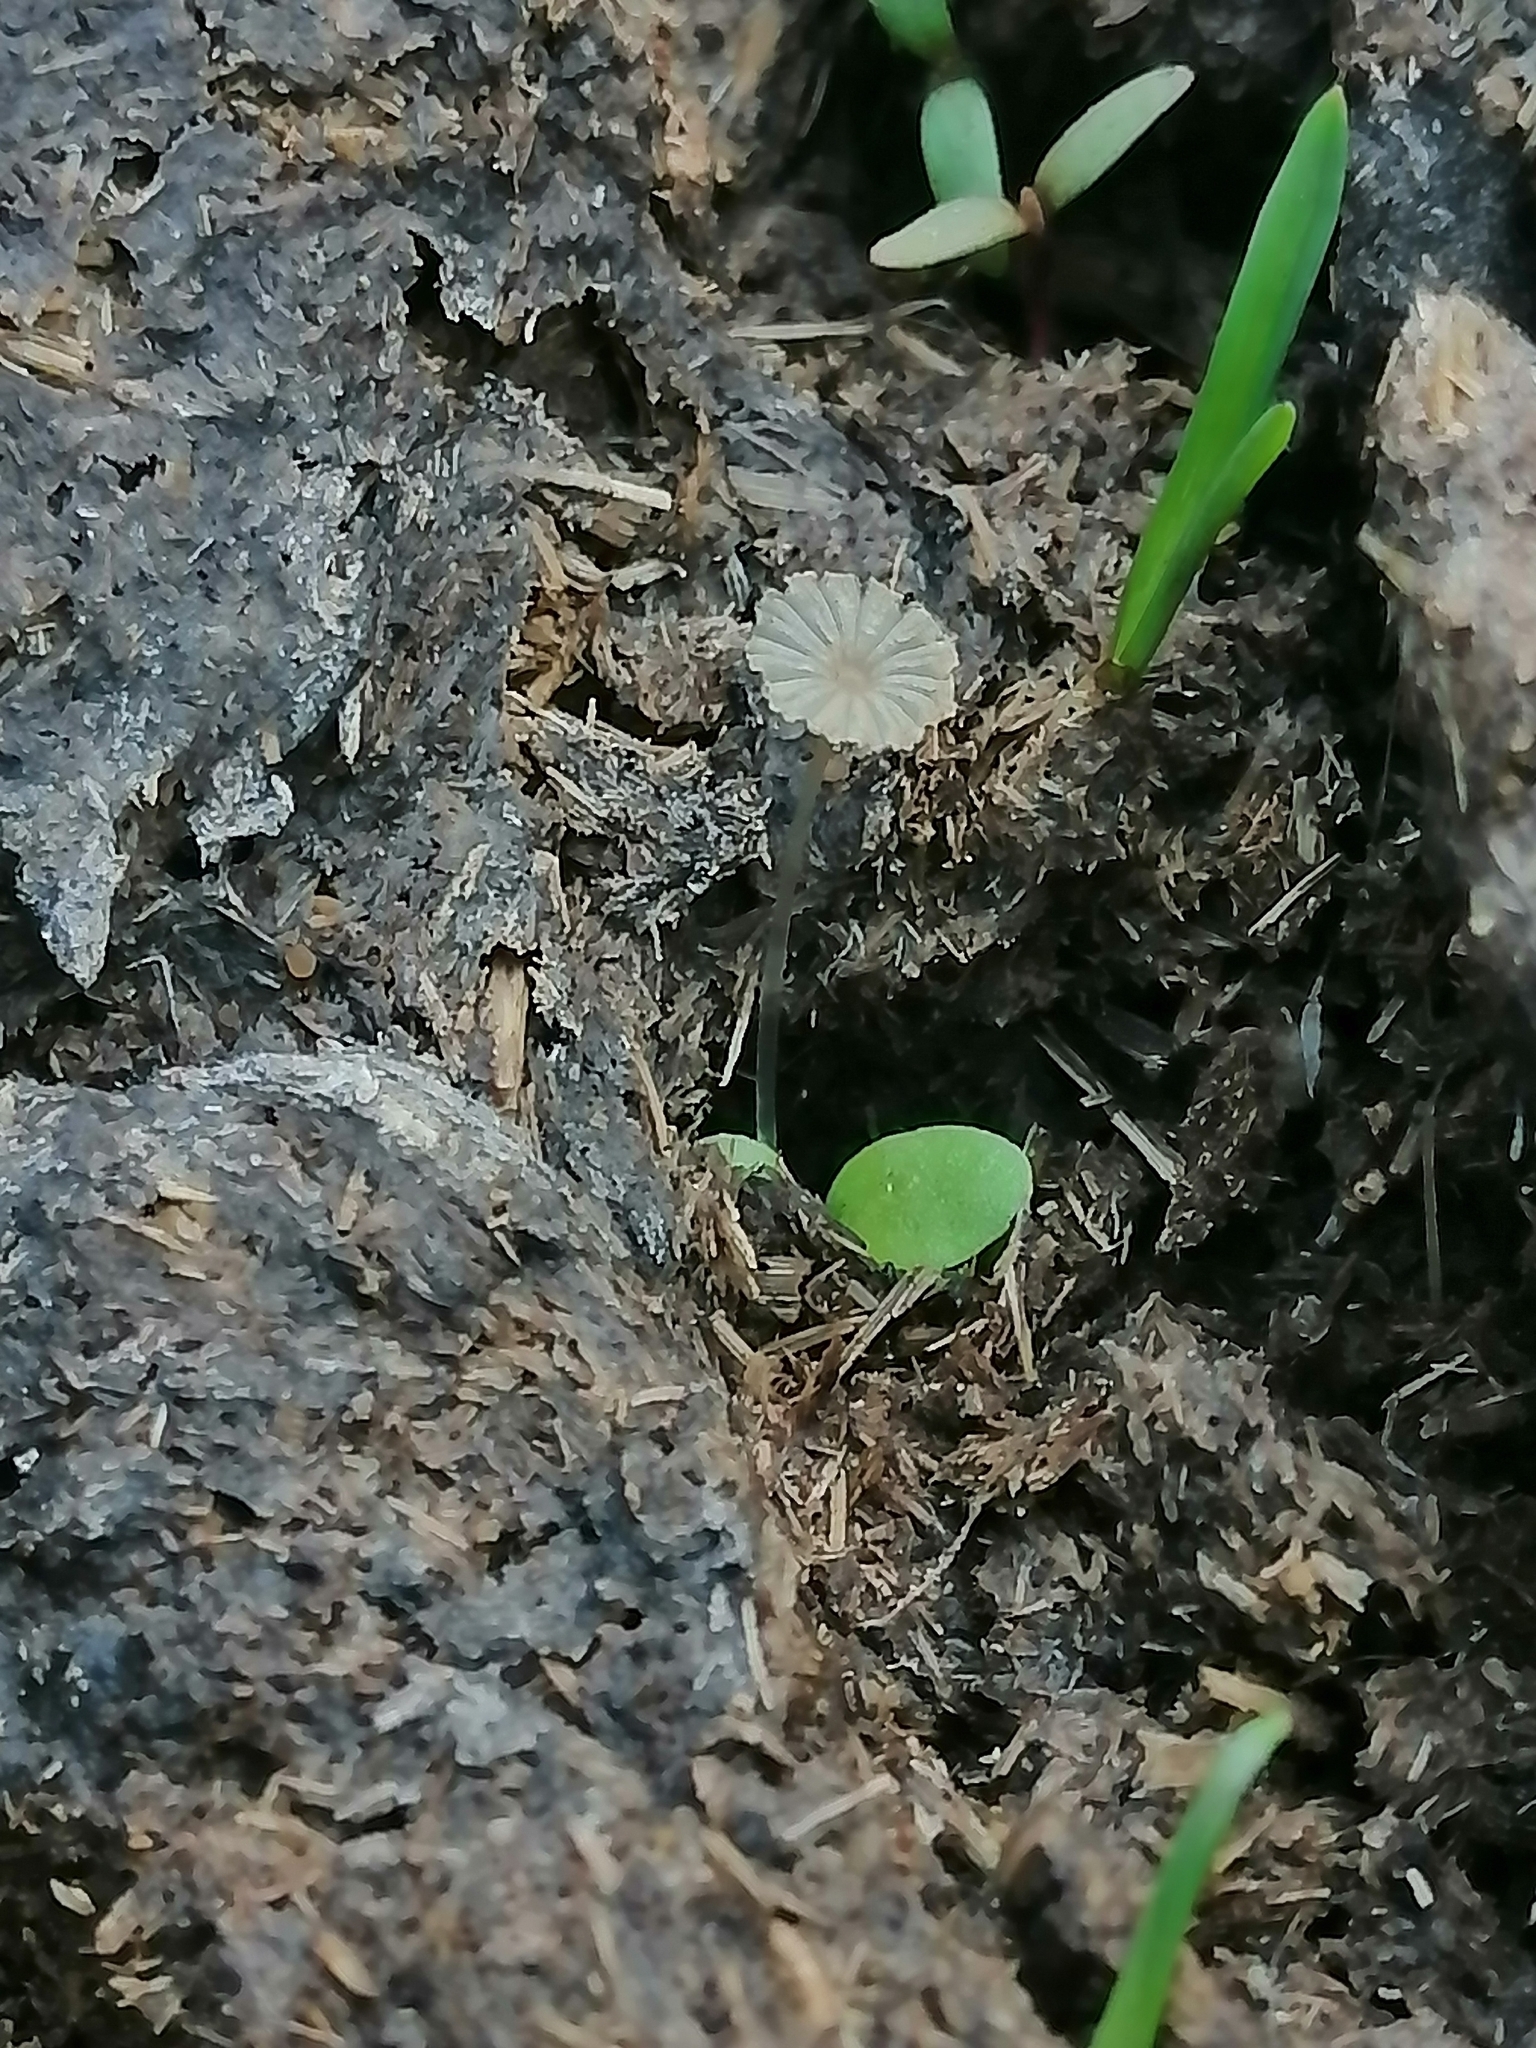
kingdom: Fungi
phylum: Basidiomycota
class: Agaricomycetes
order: Agaricales
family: Psathyrellaceae
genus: Parasola
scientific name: Parasola misera
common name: Least inkcap
